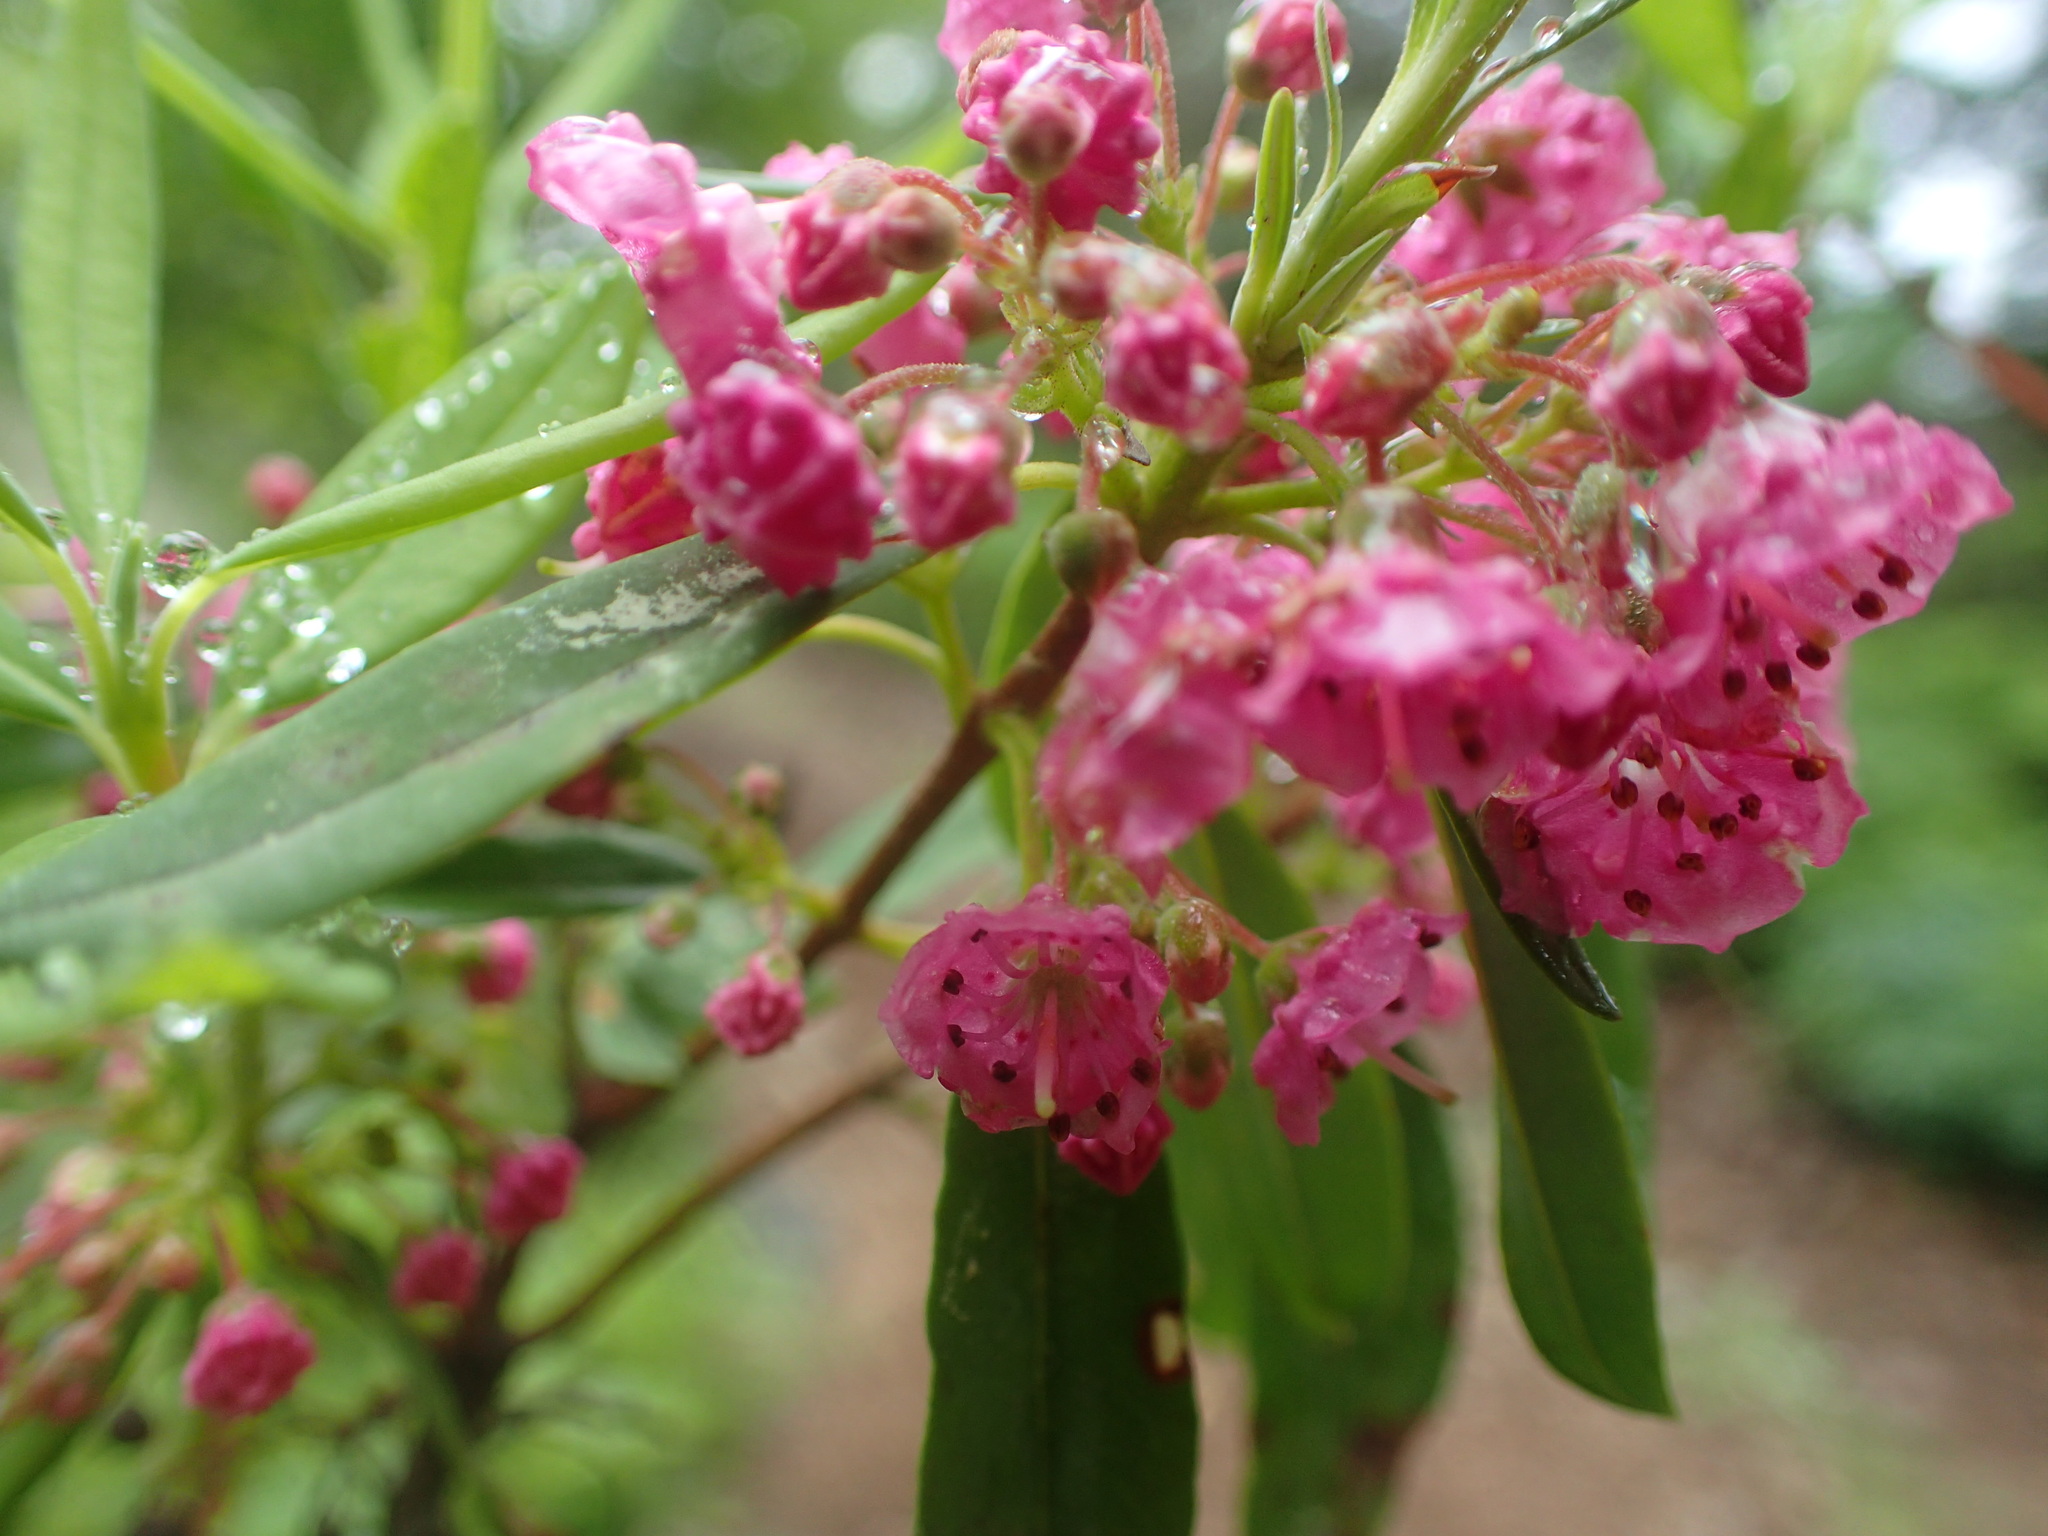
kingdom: Plantae
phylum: Tracheophyta
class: Magnoliopsida
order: Ericales
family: Ericaceae
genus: Kalmia
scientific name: Kalmia angustifolia
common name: Sheep-laurel
